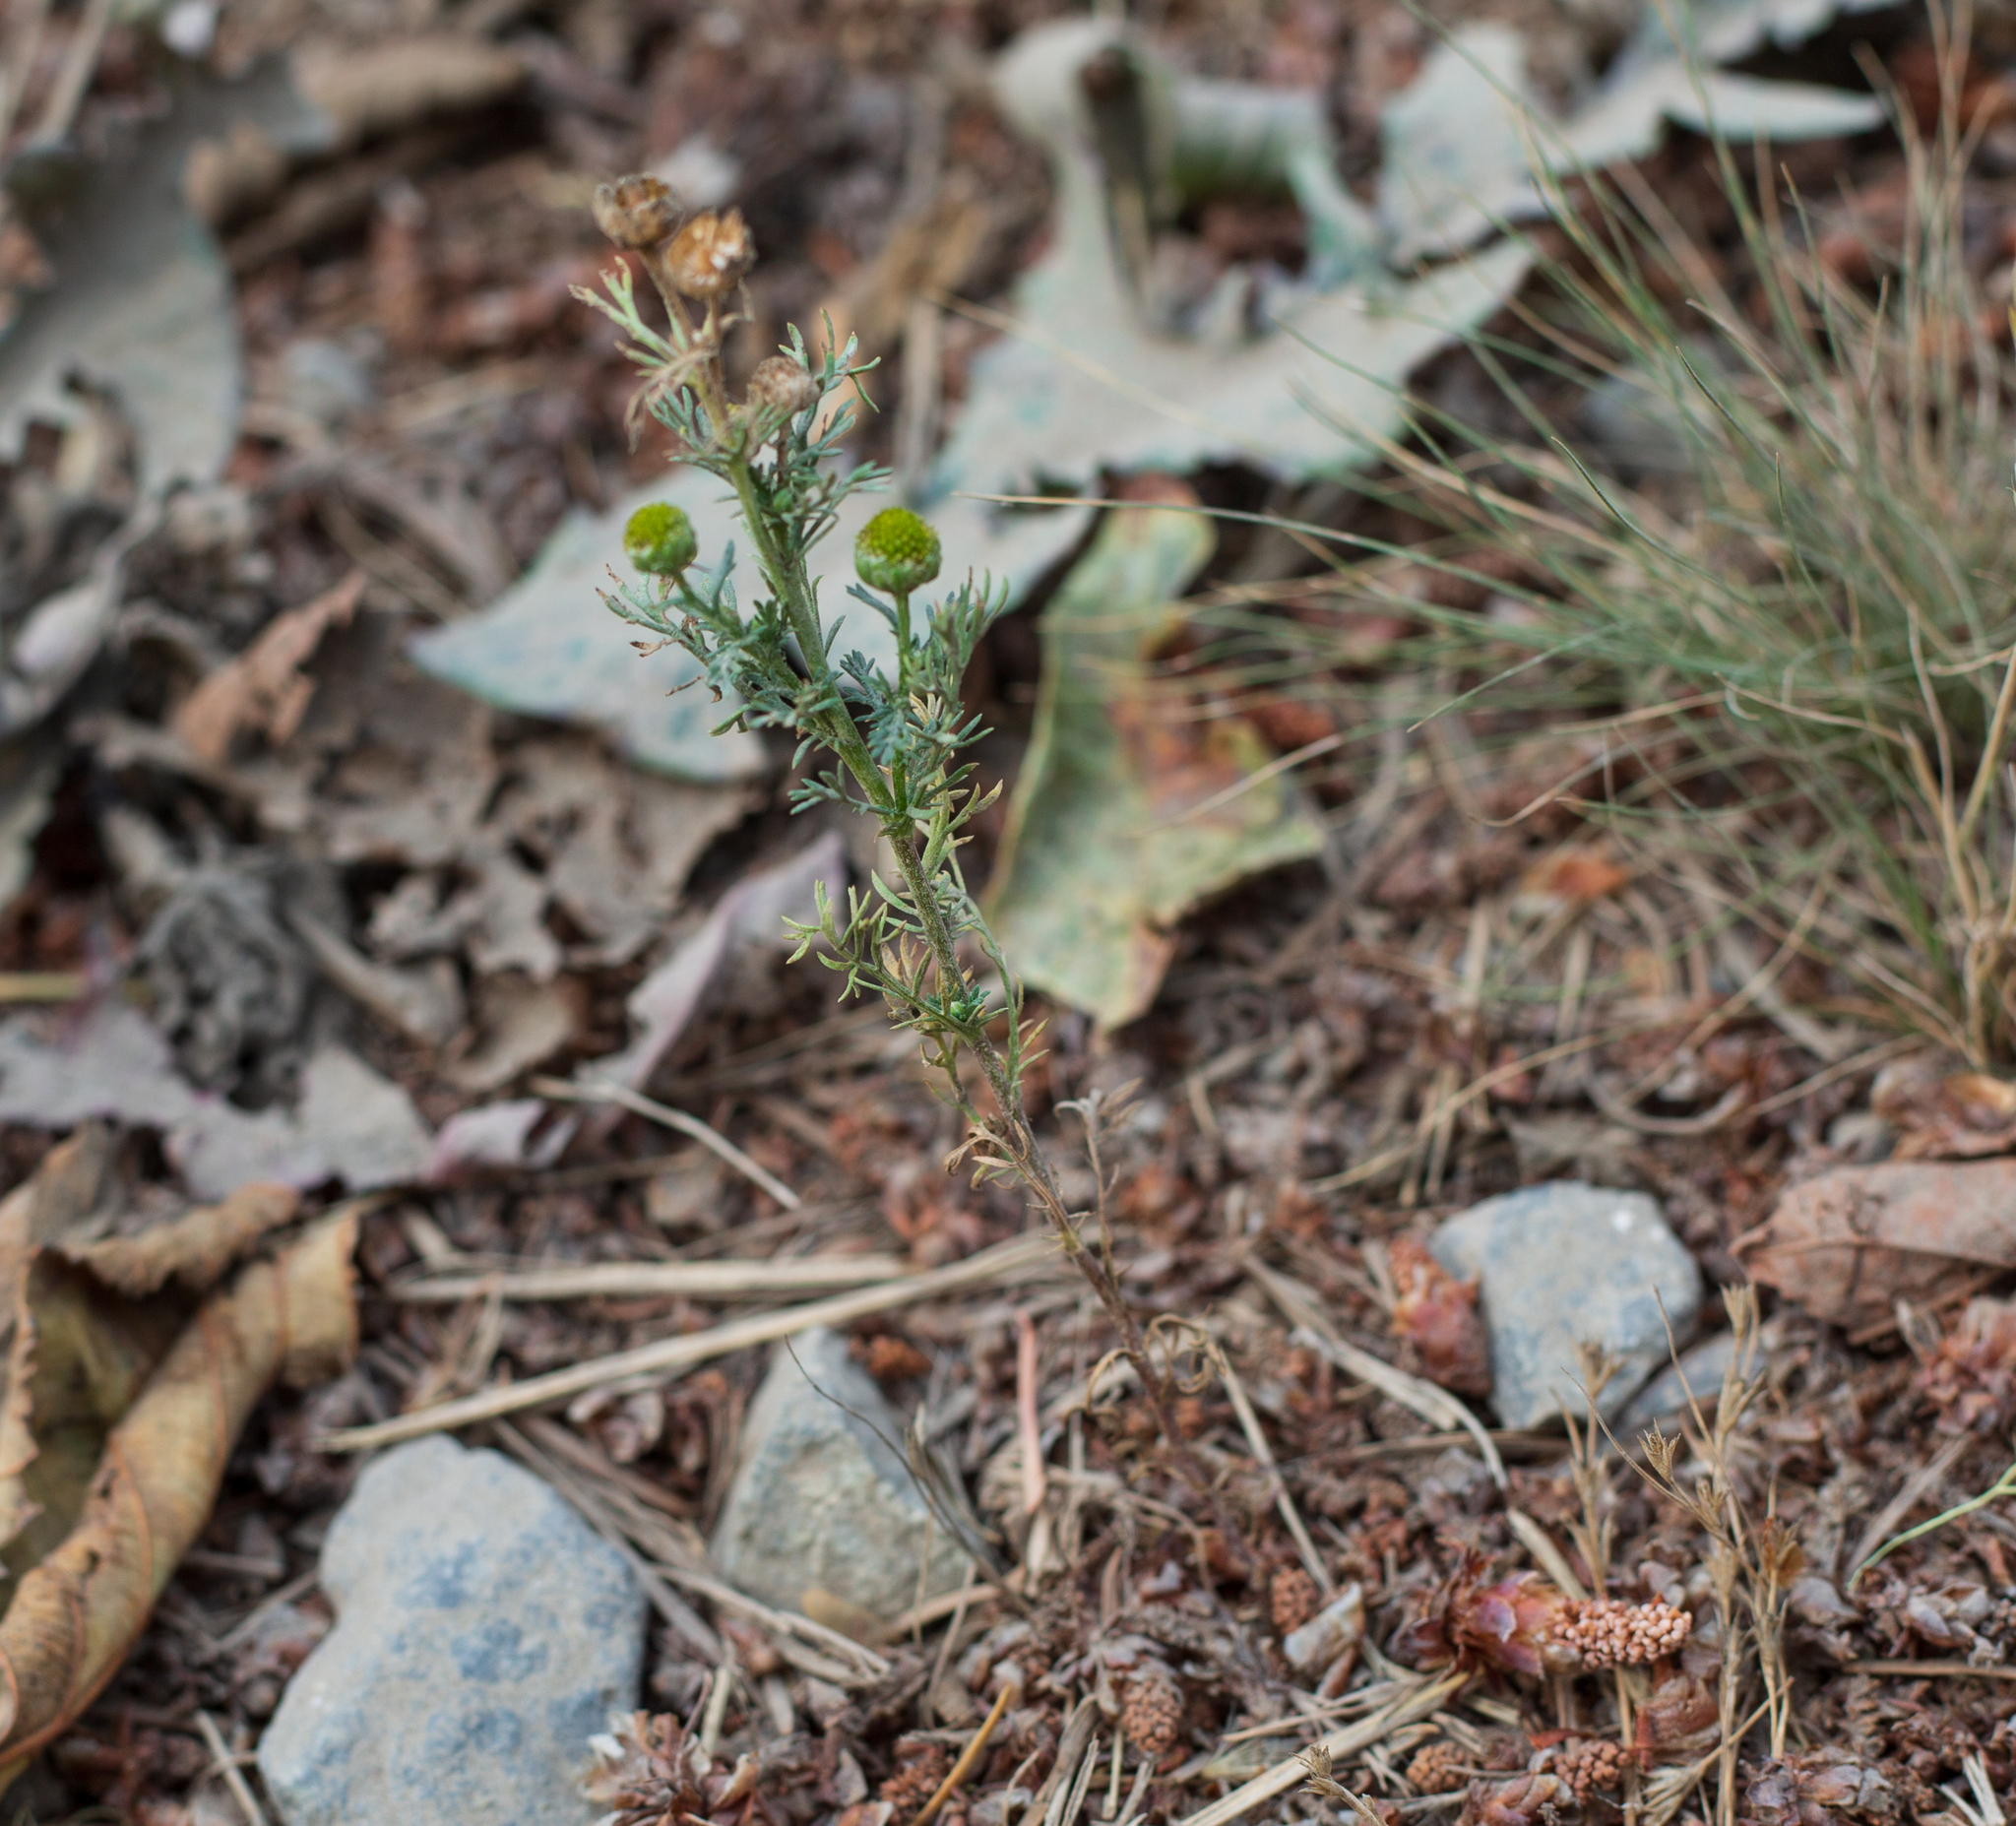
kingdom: Plantae
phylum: Tracheophyta
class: Magnoliopsida
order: Asterales
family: Asteraceae
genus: Matricaria
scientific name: Matricaria discoidea
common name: Disc mayweed
